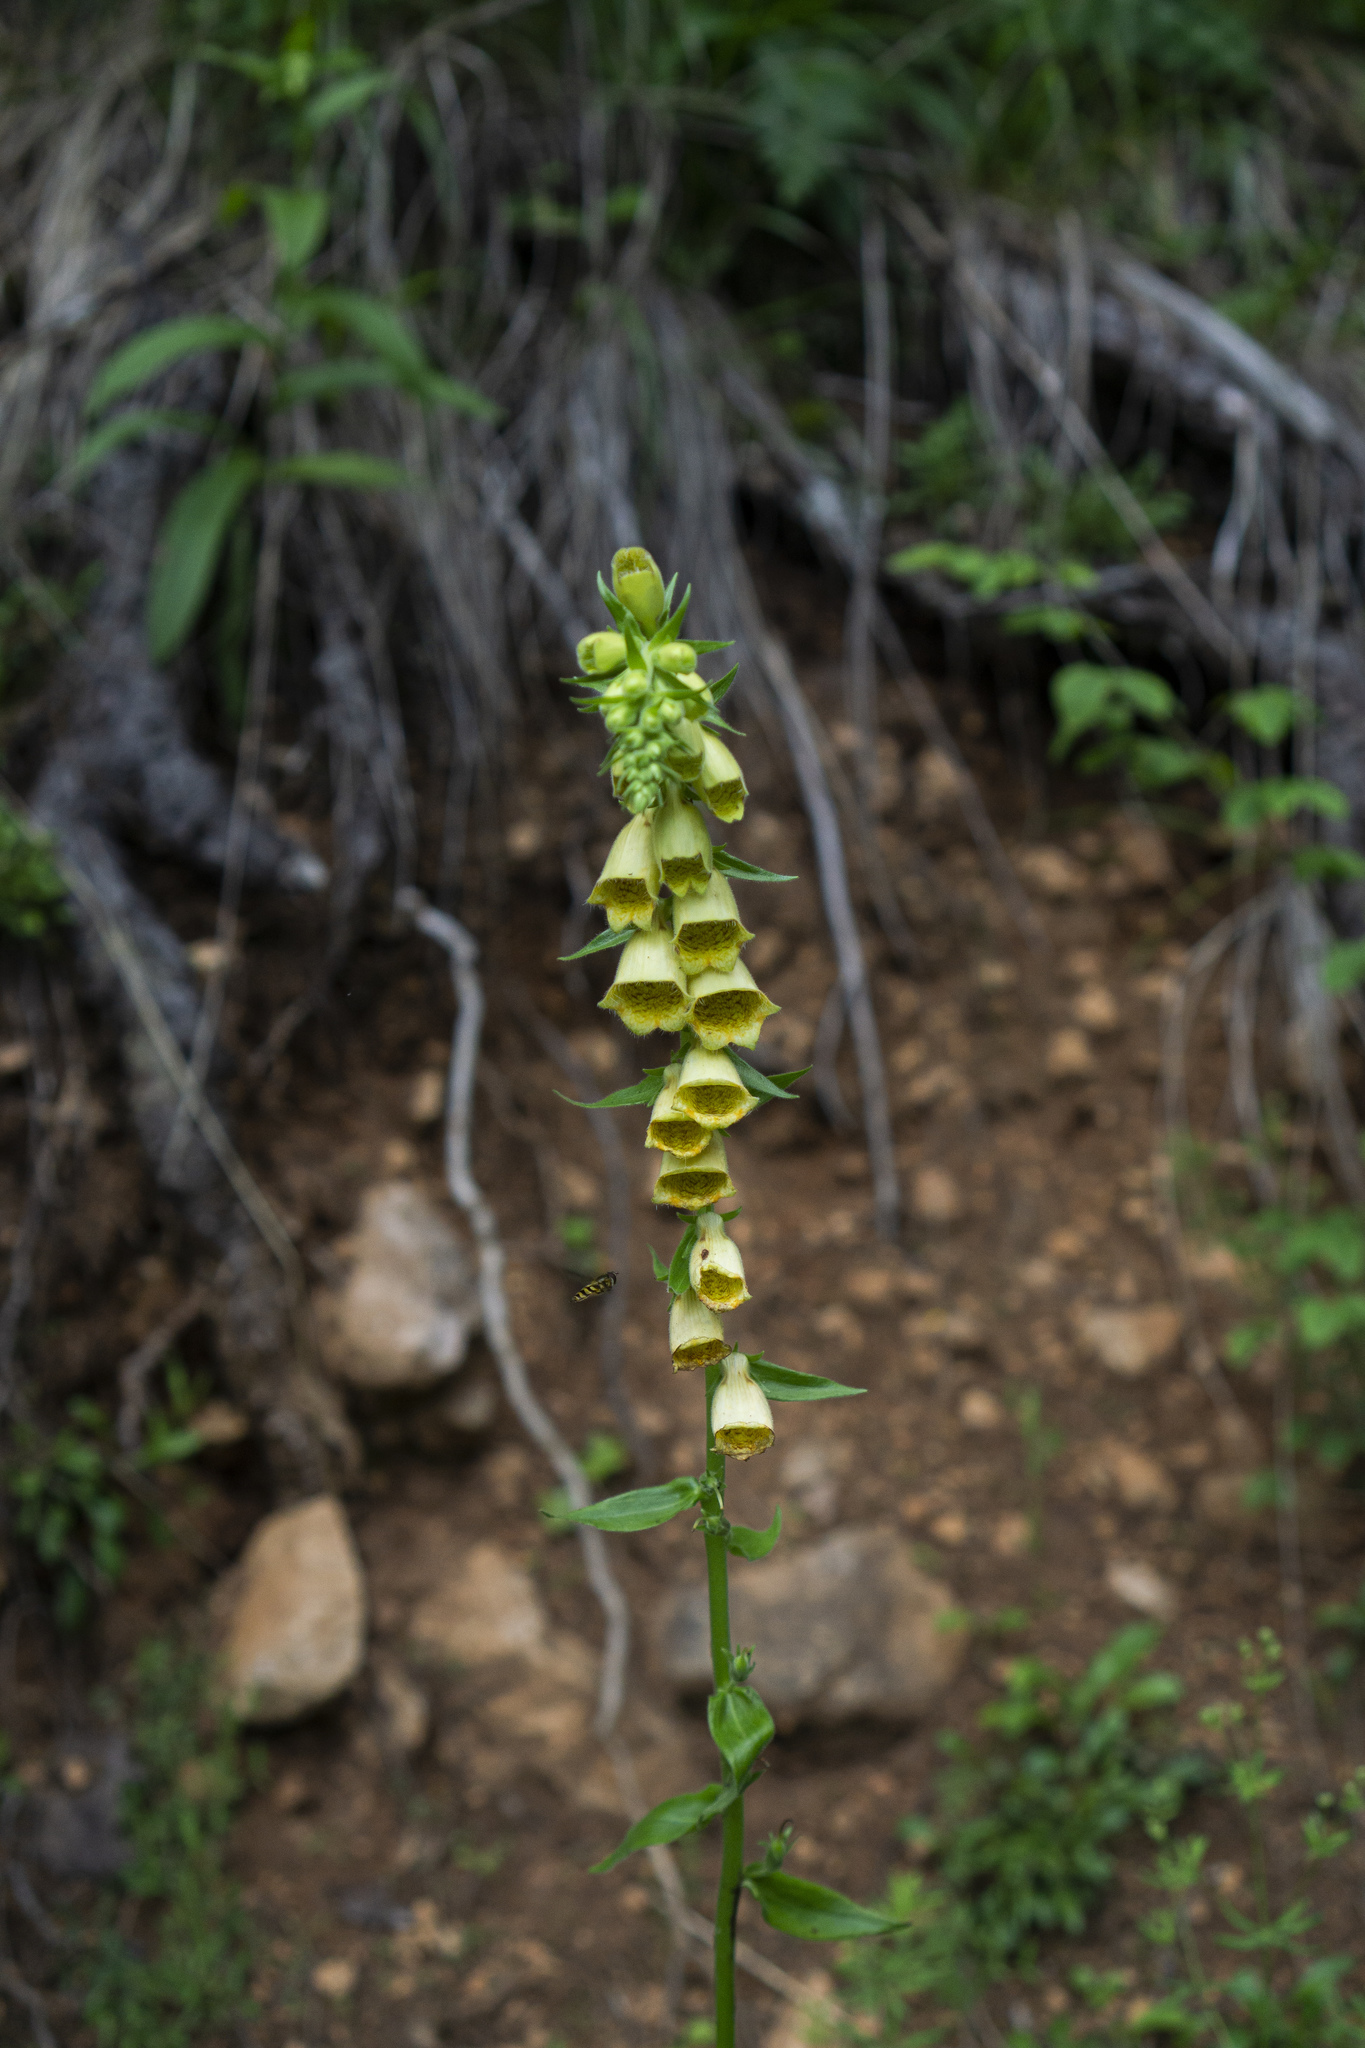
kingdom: Plantae
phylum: Tracheophyta
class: Magnoliopsida
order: Lamiales
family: Plantaginaceae
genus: Digitalis
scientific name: Digitalis grandiflora
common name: Yellow foxglove
